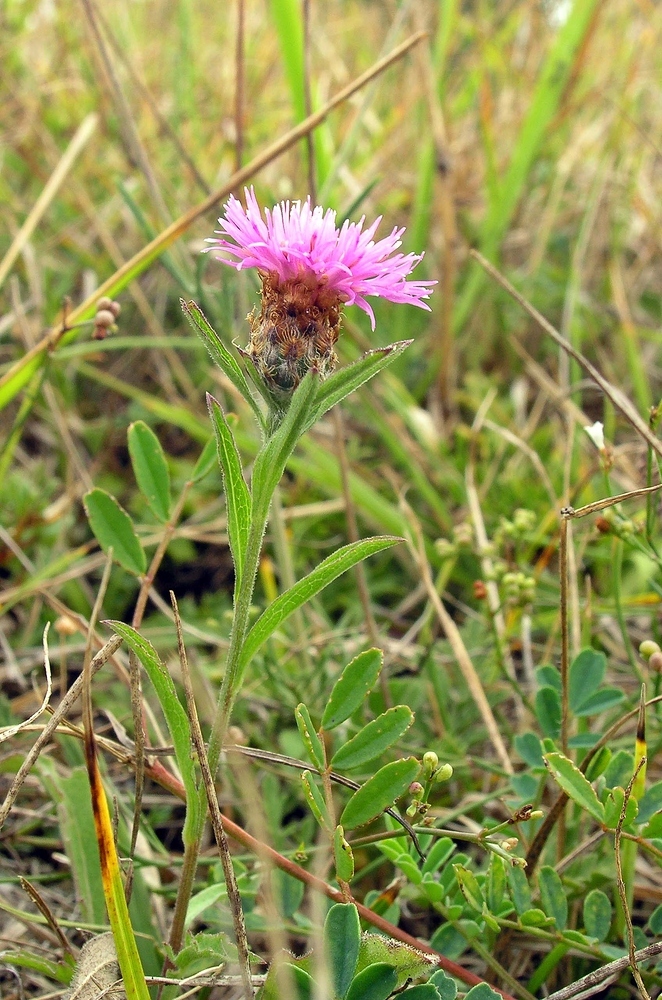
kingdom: Plantae
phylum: Tracheophyta
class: Magnoliopsida
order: Asterales
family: Asteraceae
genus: Centaurea
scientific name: Centaurea decipiens
